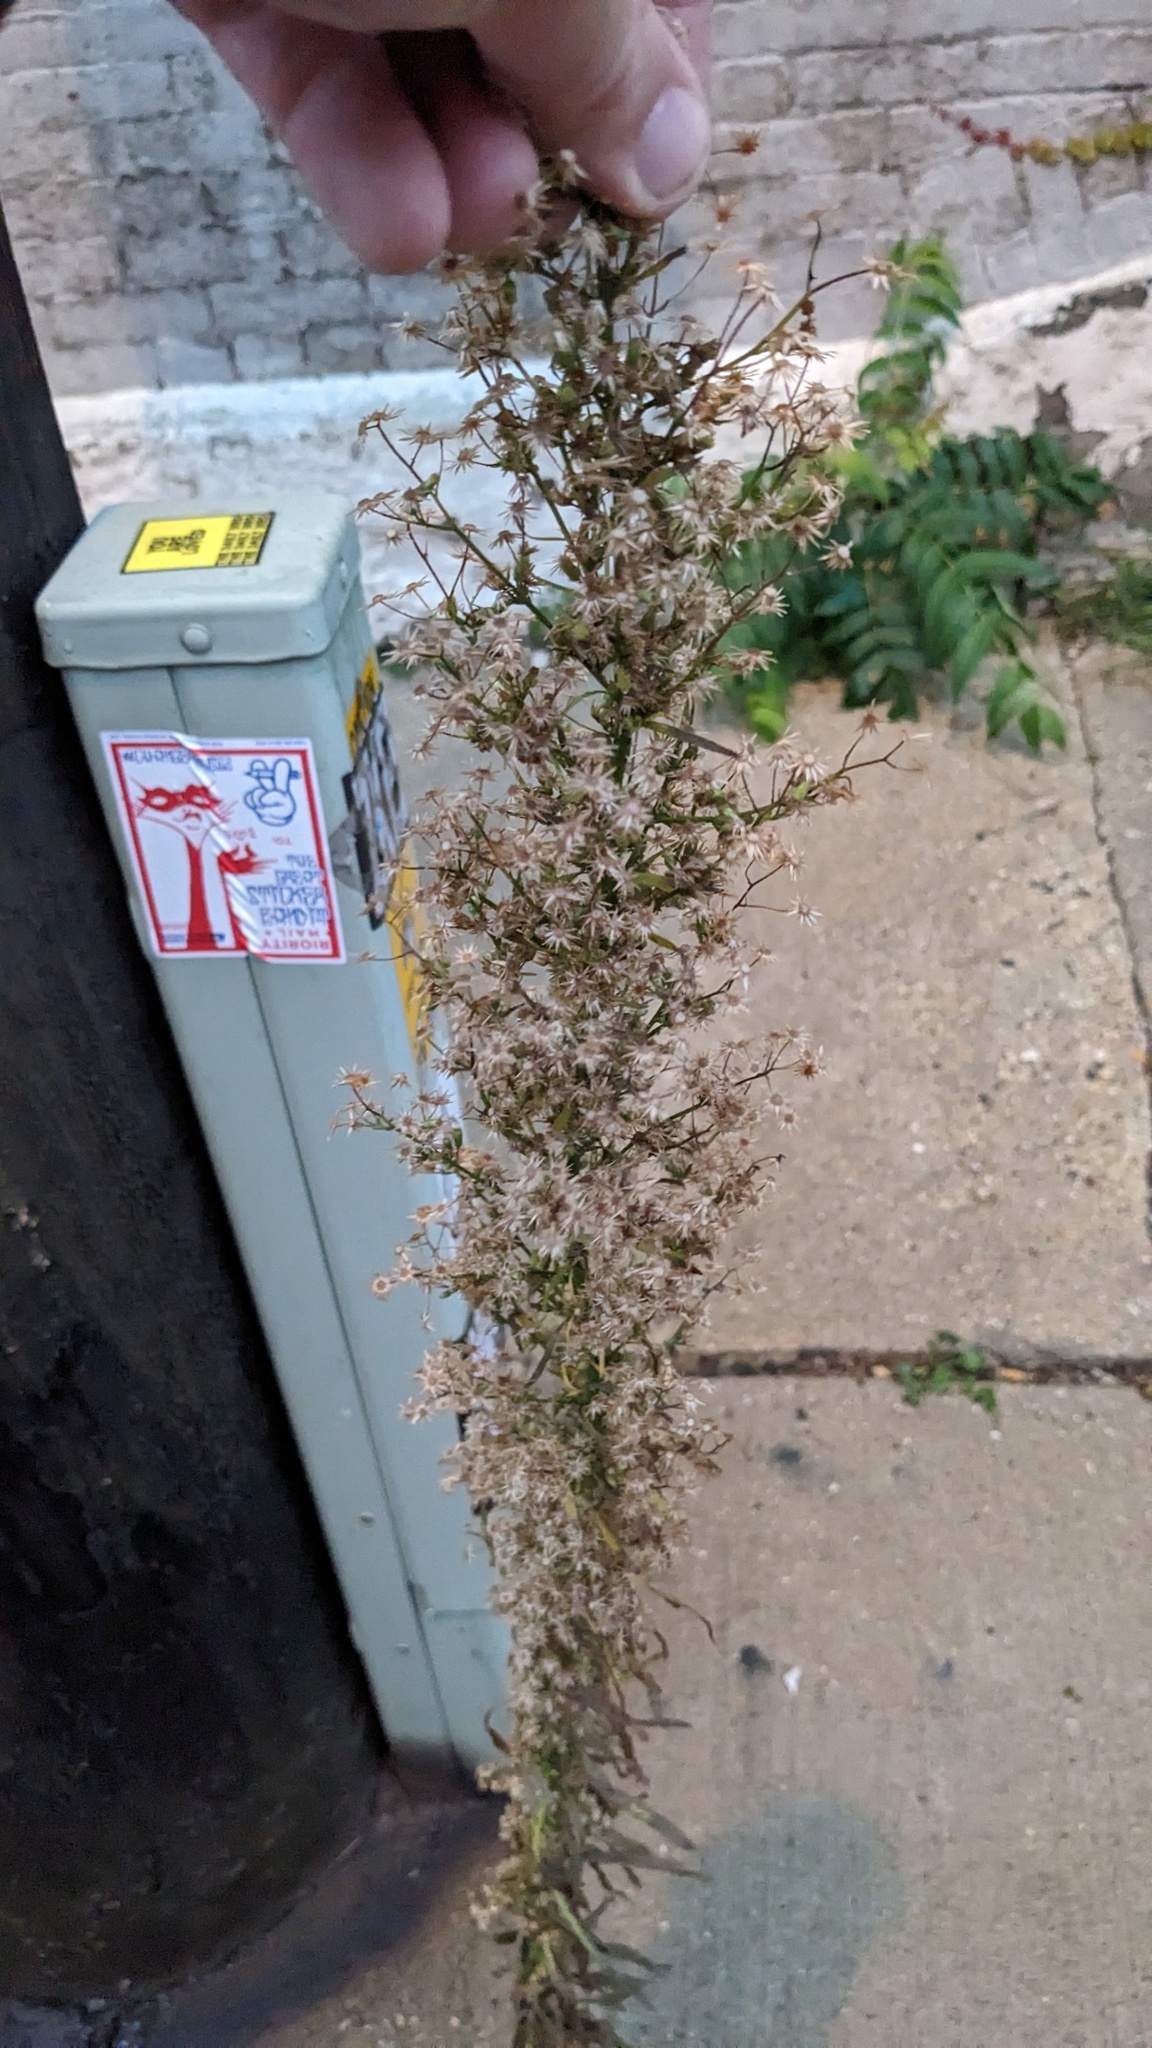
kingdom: Plantae
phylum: Tracheophyta
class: Magnoliopsida
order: Asterales
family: Asteraceae
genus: Erigeron
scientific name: Erigeron canadensis
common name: Canadian fleabane
